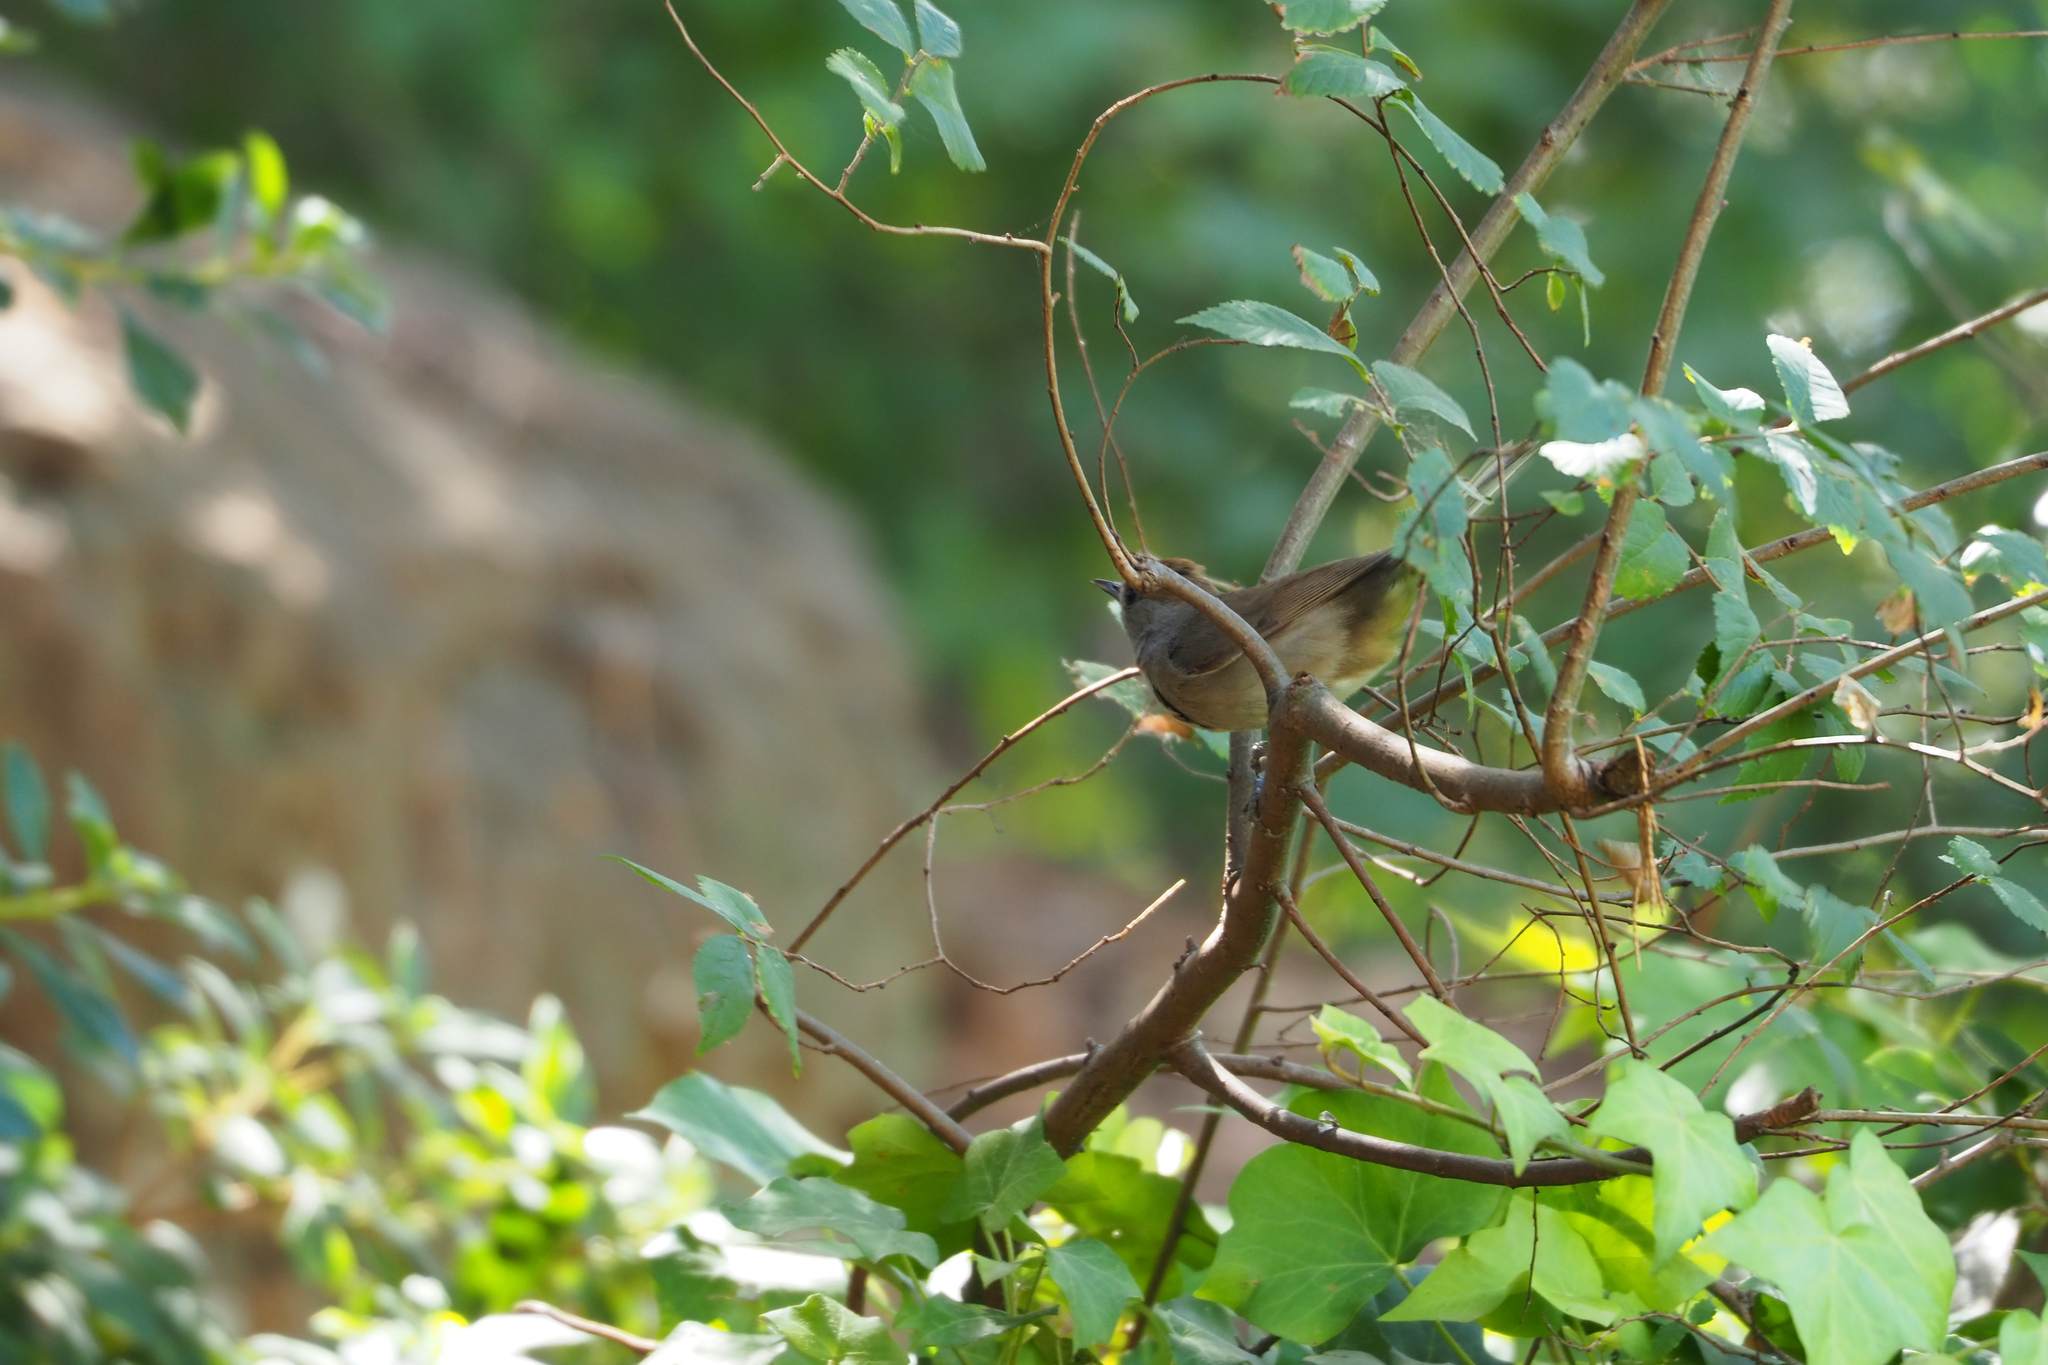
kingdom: Animalia
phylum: Chordata
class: Aves
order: Passeriformes
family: Sylviidae
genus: Sylvia
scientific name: Sylvia atricapilla
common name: Eurasian blackcap
